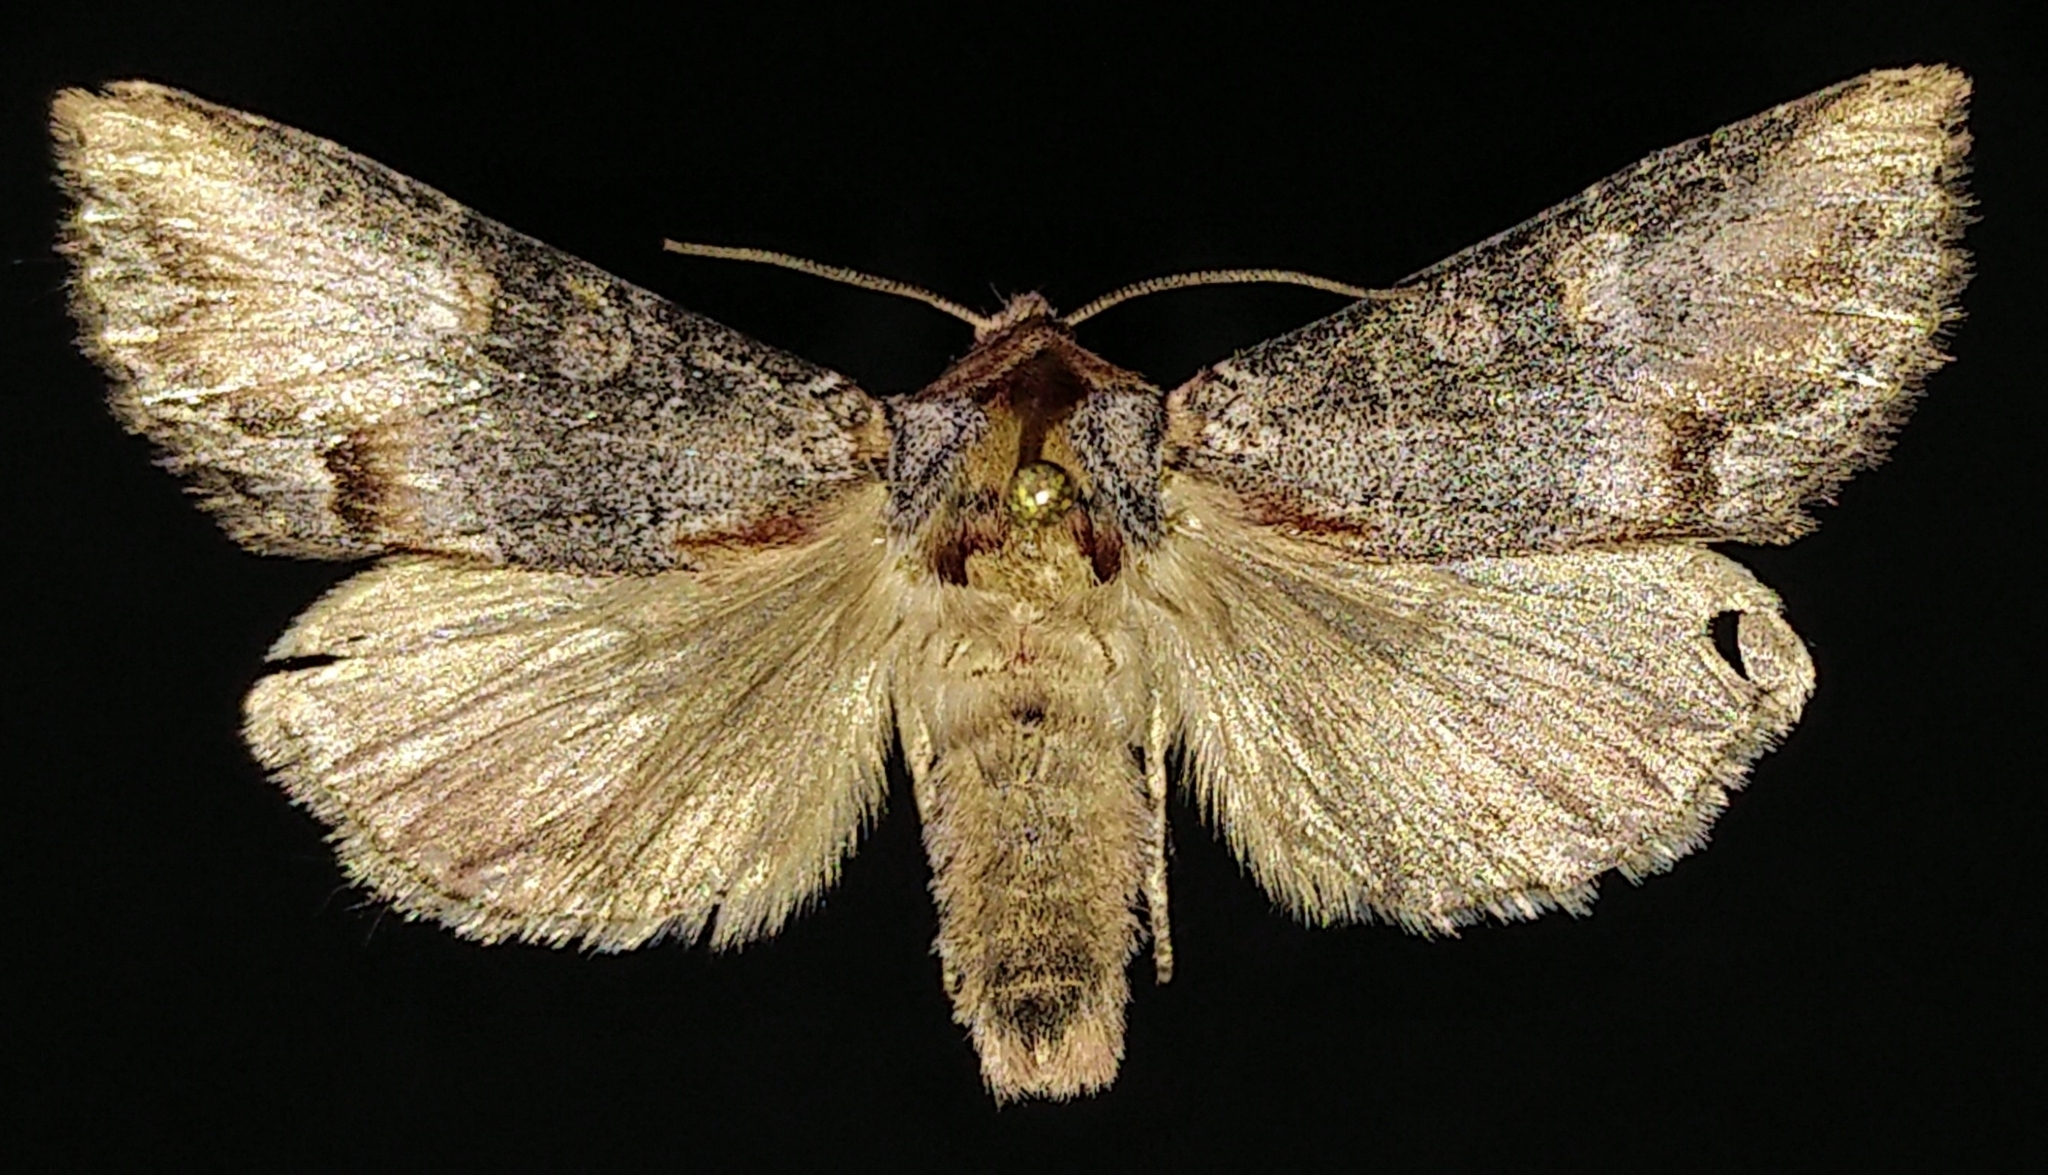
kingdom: Animalia
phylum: Arthropoda
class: Insecta
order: Lepidoptera
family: Noctuidae
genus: Admetovis
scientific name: Admetovis icarus
